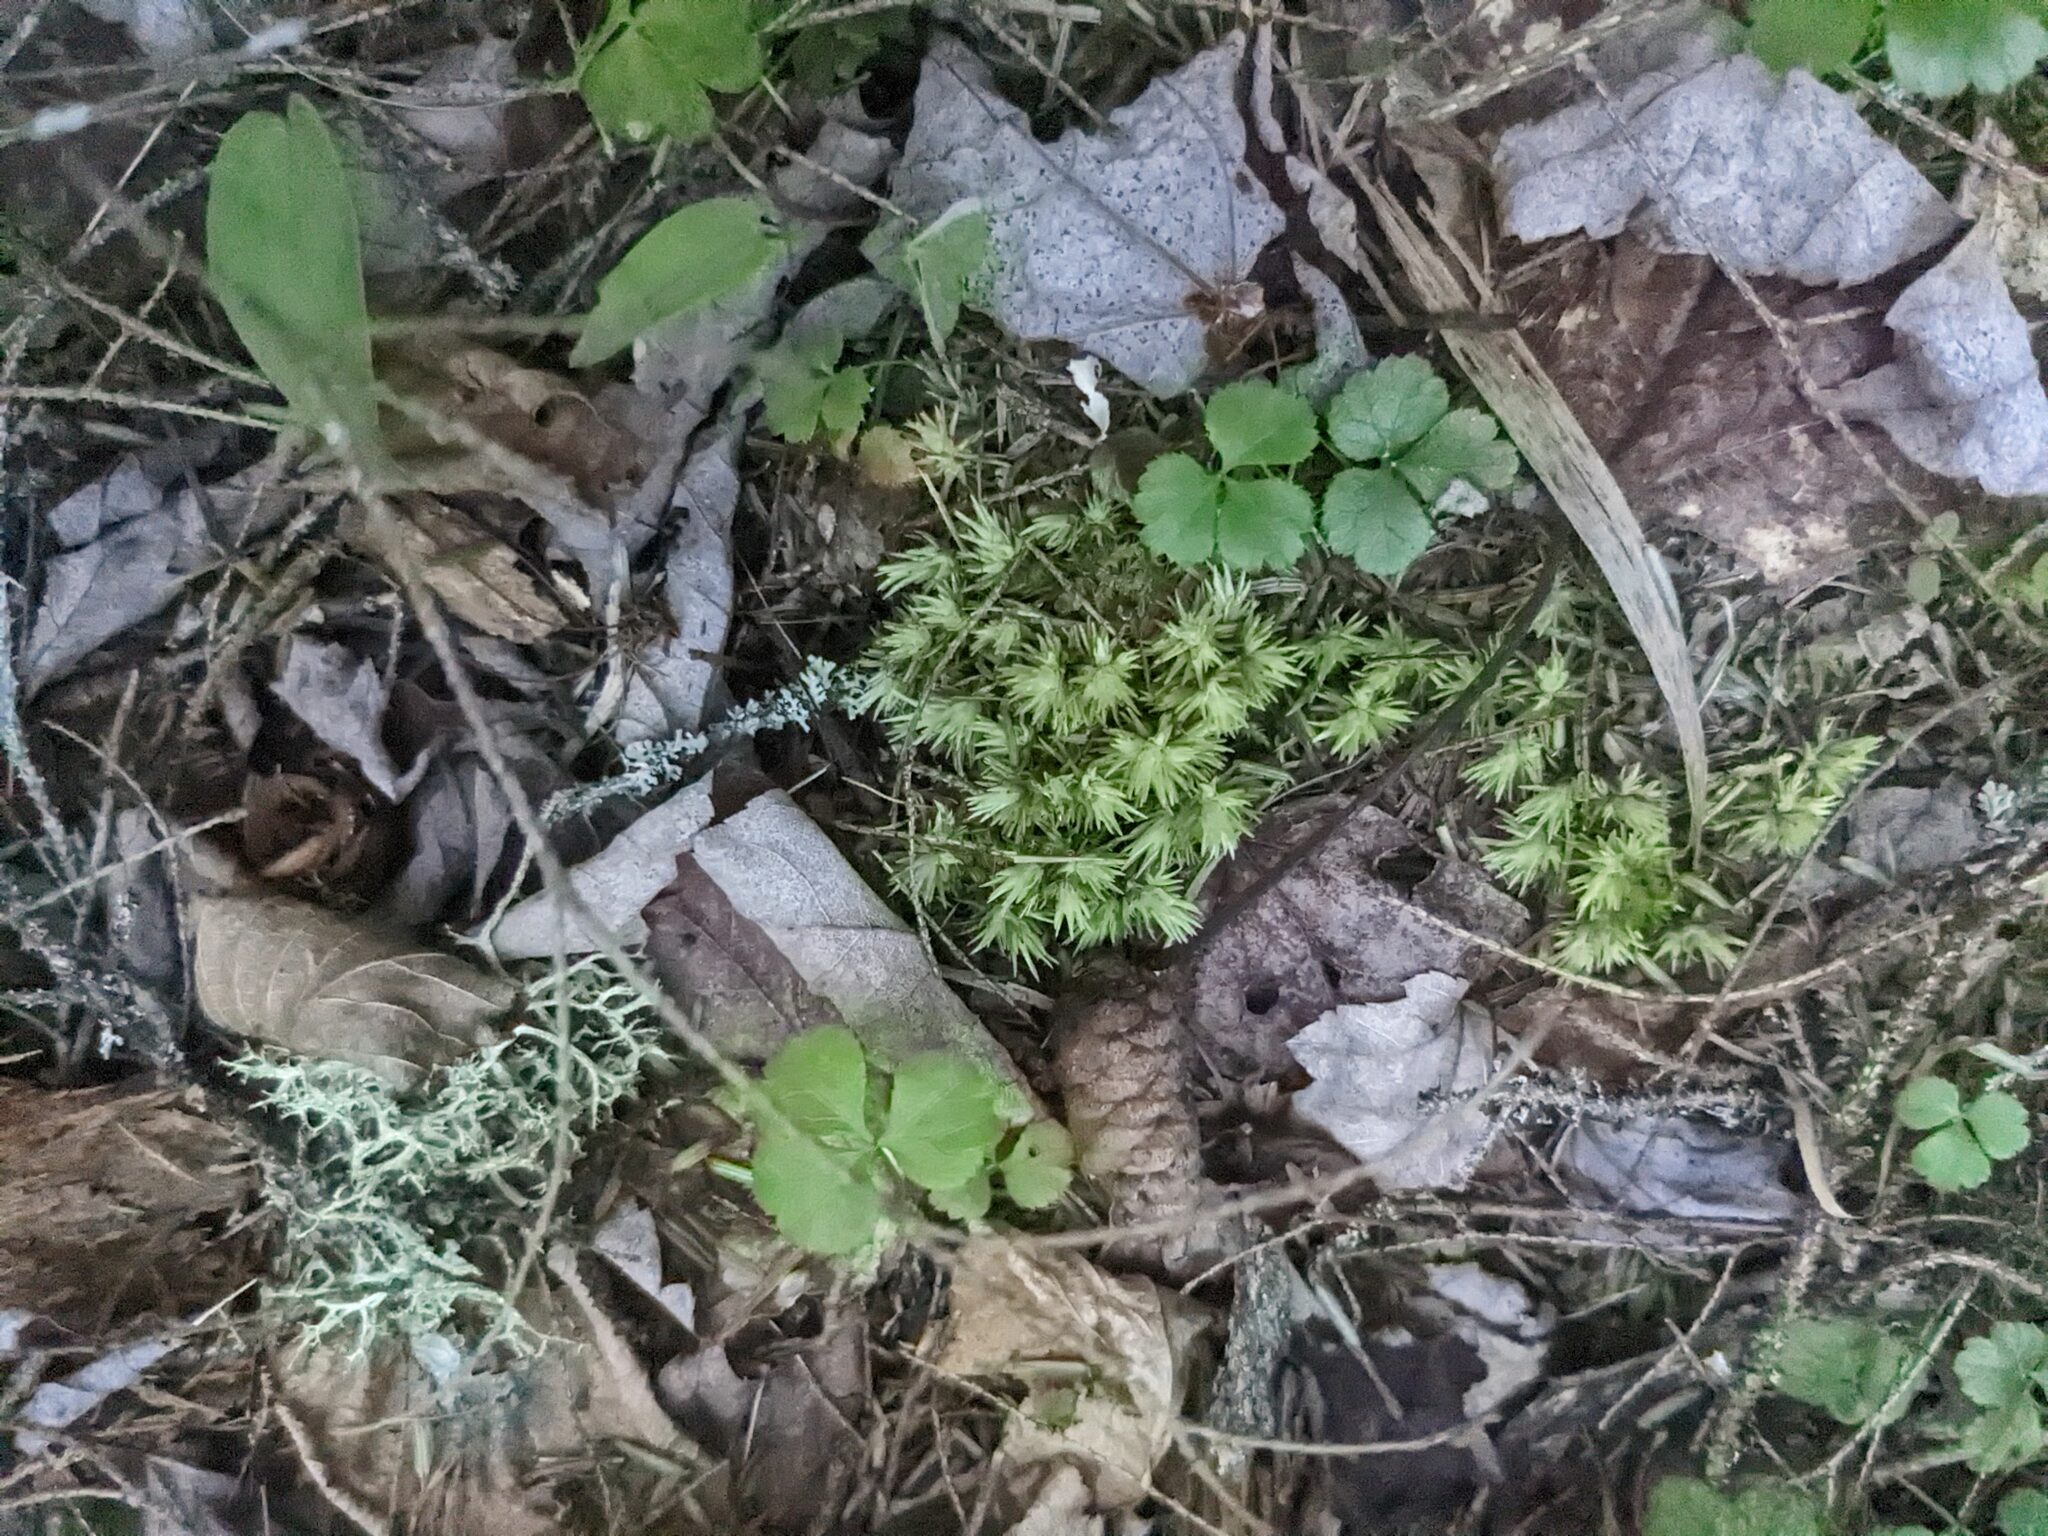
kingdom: Plantae
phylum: Tracheophyta
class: Magnoliopsida
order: Ranunculales
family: Ranunculaceae
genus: Coptis
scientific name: Coptis trifolia
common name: Canker-root
